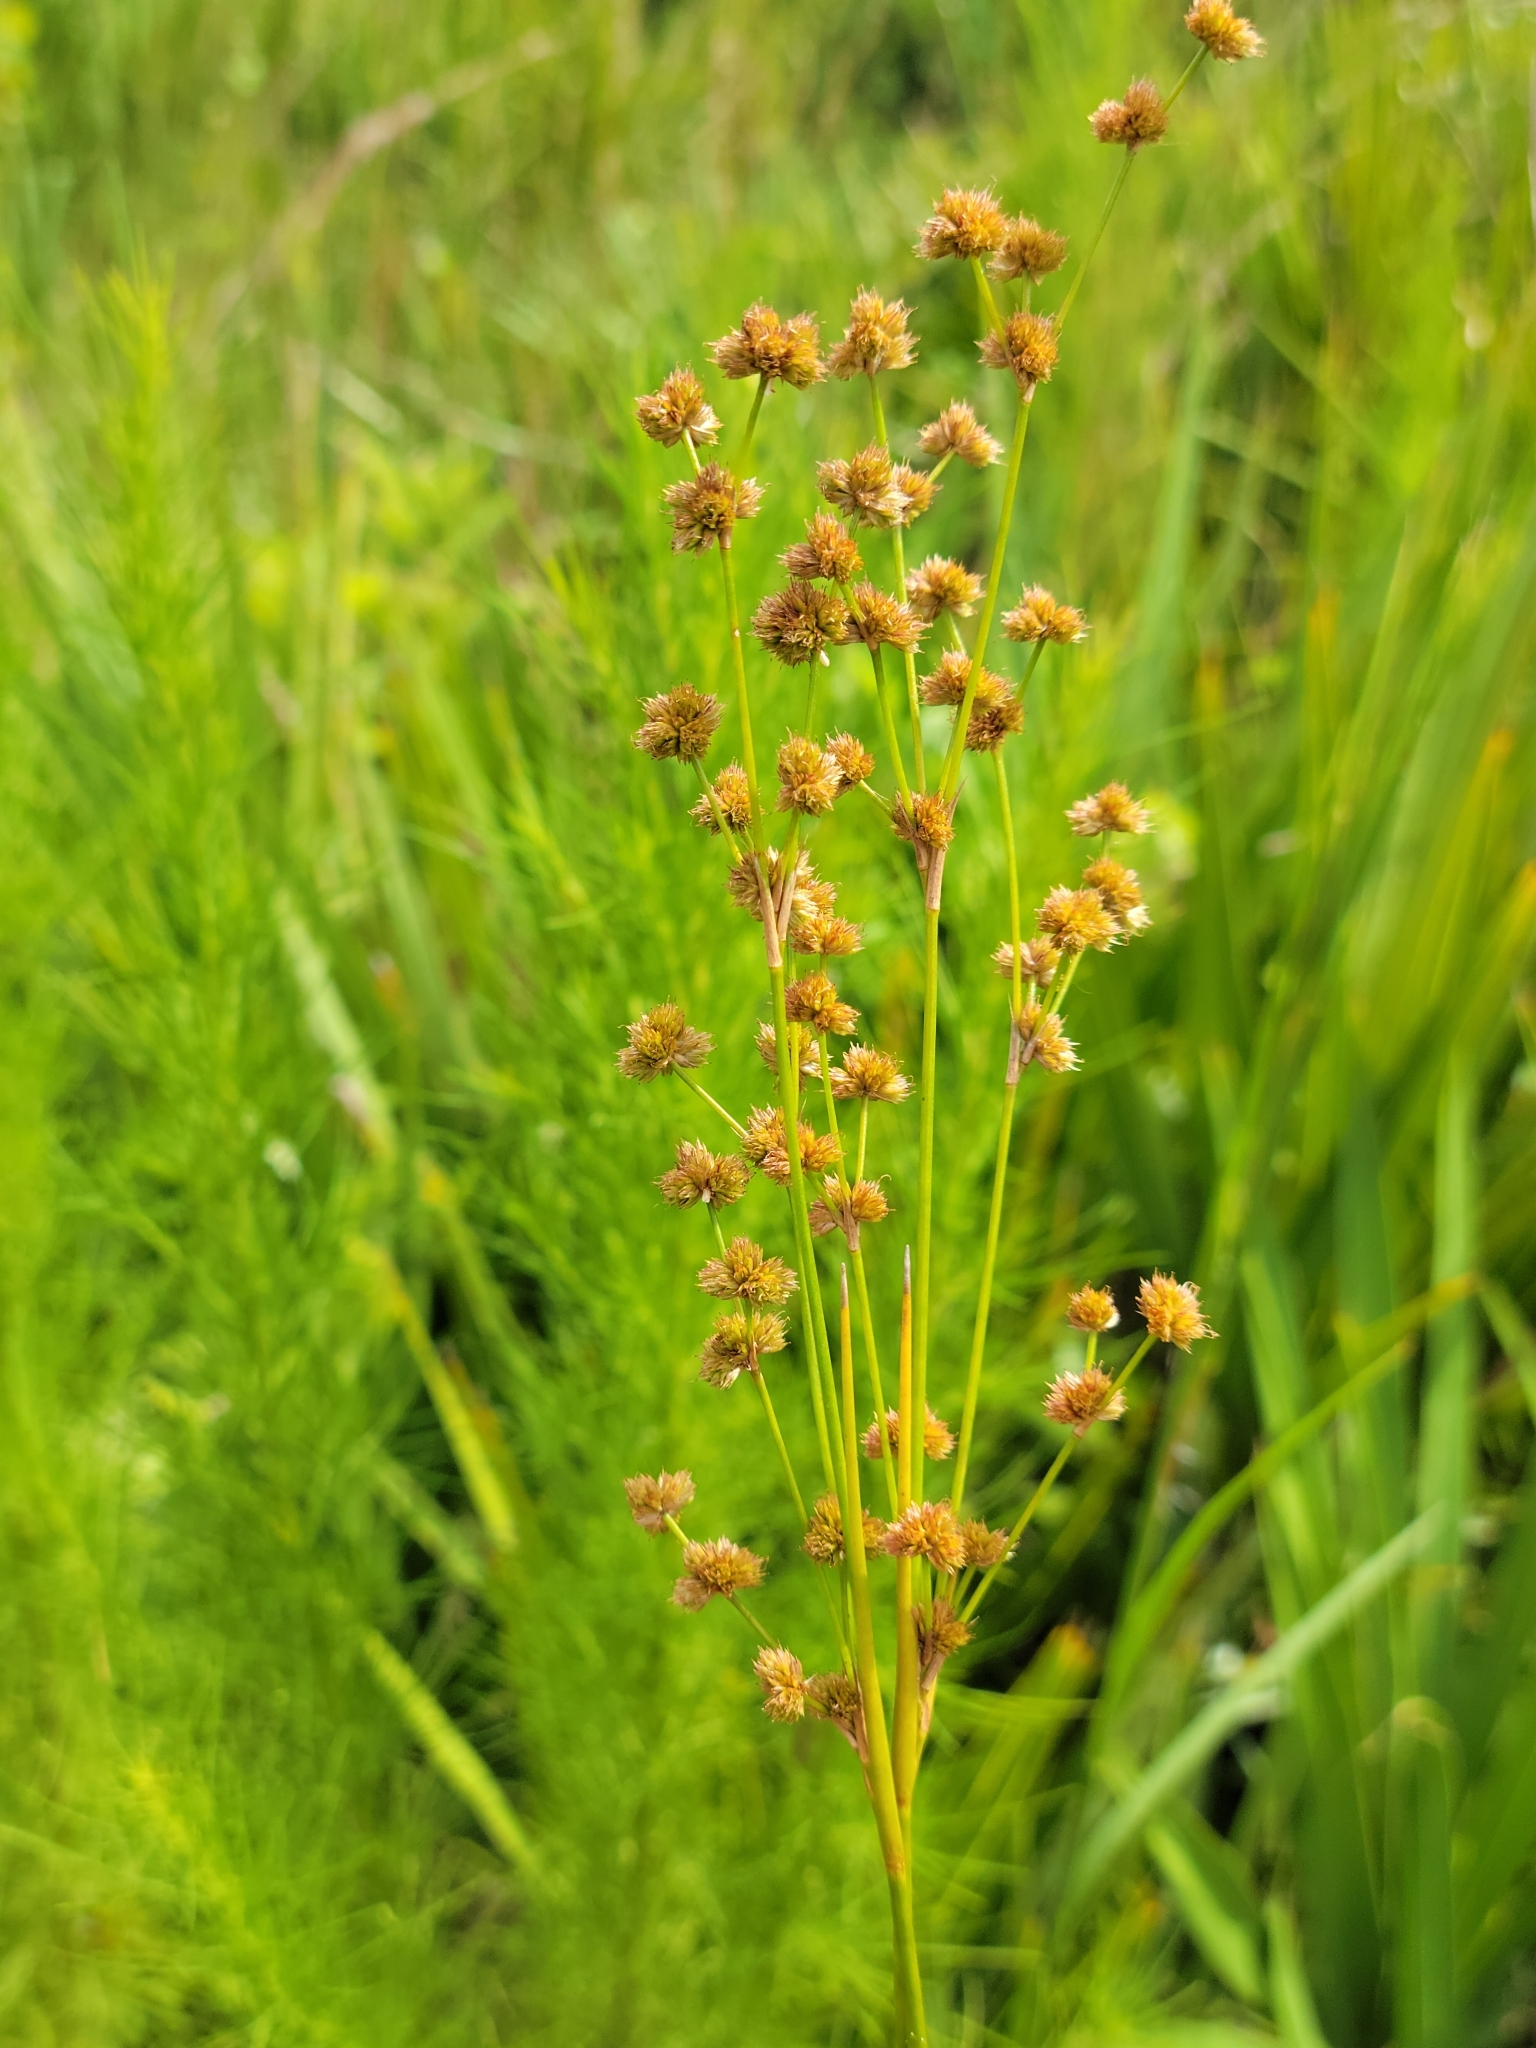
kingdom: Plantae
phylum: Tracheophyta
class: Liliopsida
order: Poales
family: Juncaceae
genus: Juncus
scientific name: Juncus scirpoides
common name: Needlepod rush
